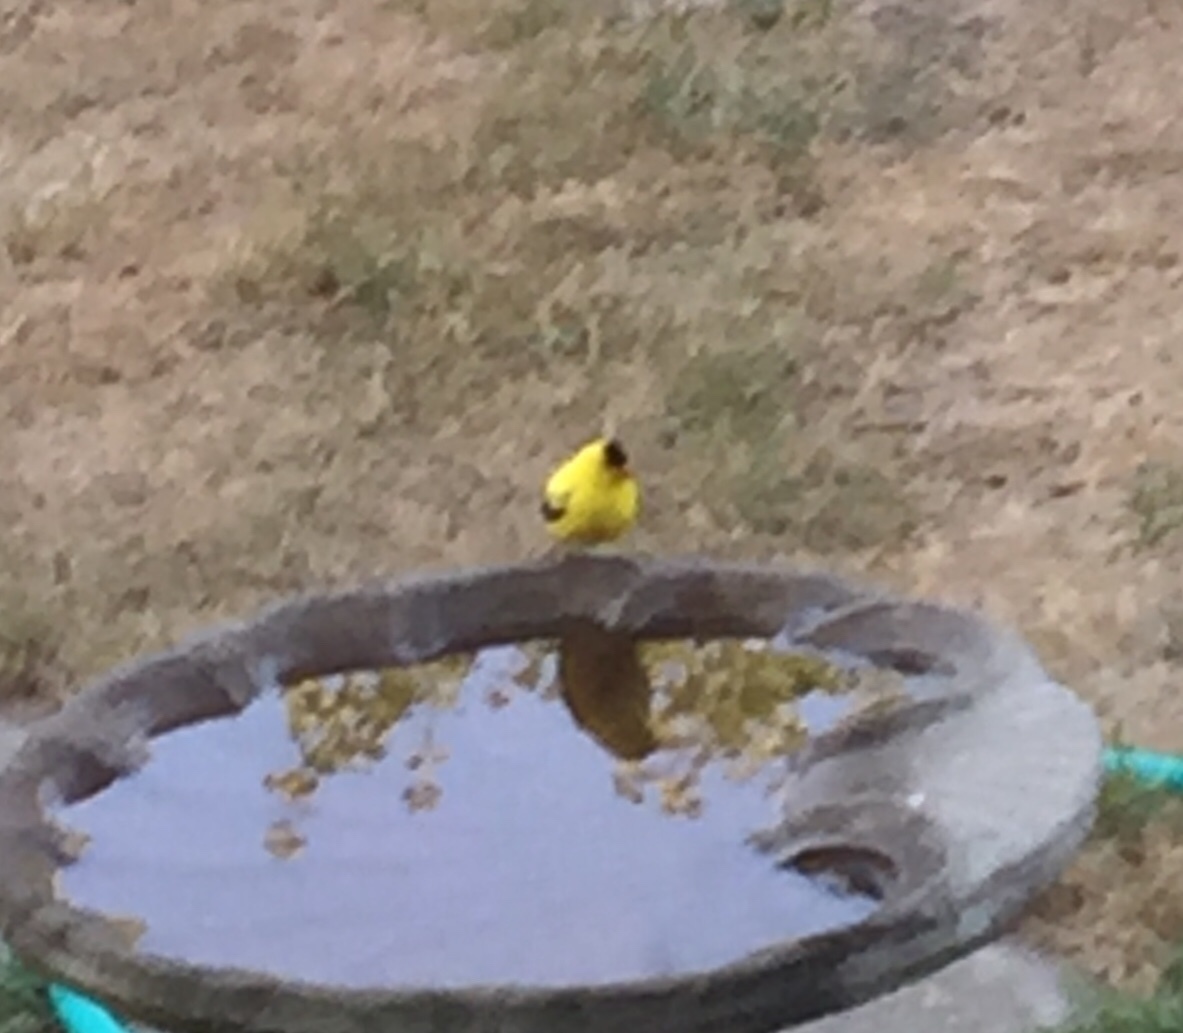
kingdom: Animalia
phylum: Chordata
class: Aves
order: Passeriformes
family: Fringillidae
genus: Spinus
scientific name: Spinus tristis
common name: American goldfinch
